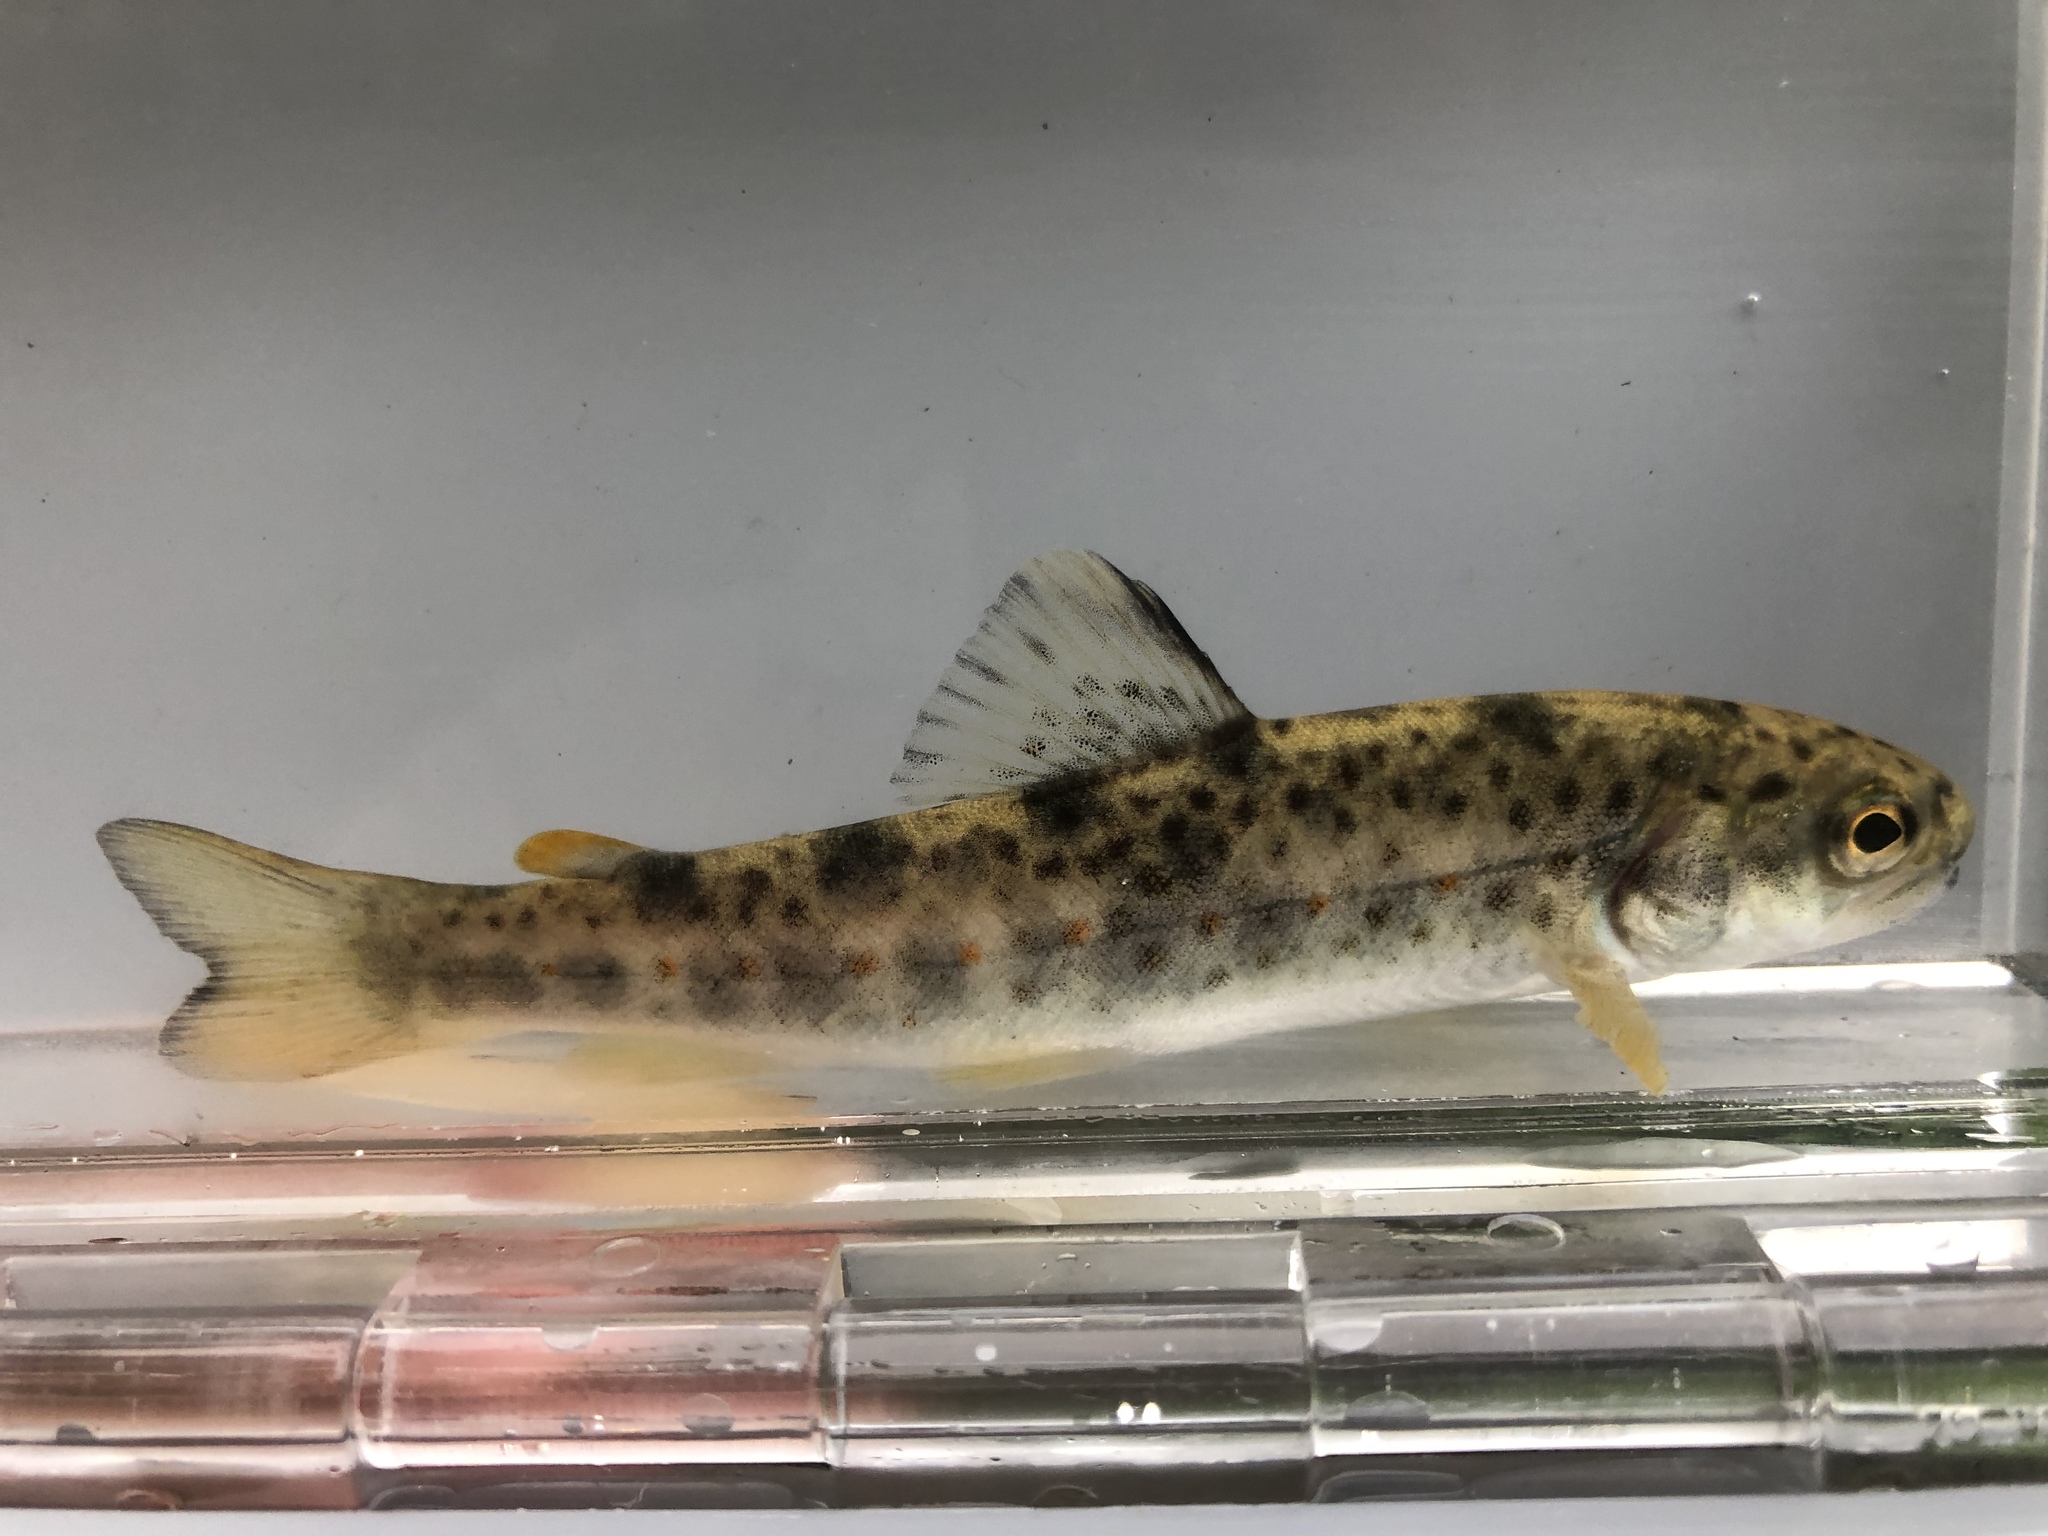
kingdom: Animalia
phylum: Chordata
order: Salmoniformes
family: Salmonidae
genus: Salmo
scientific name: Salmo trutta
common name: Brown trout
